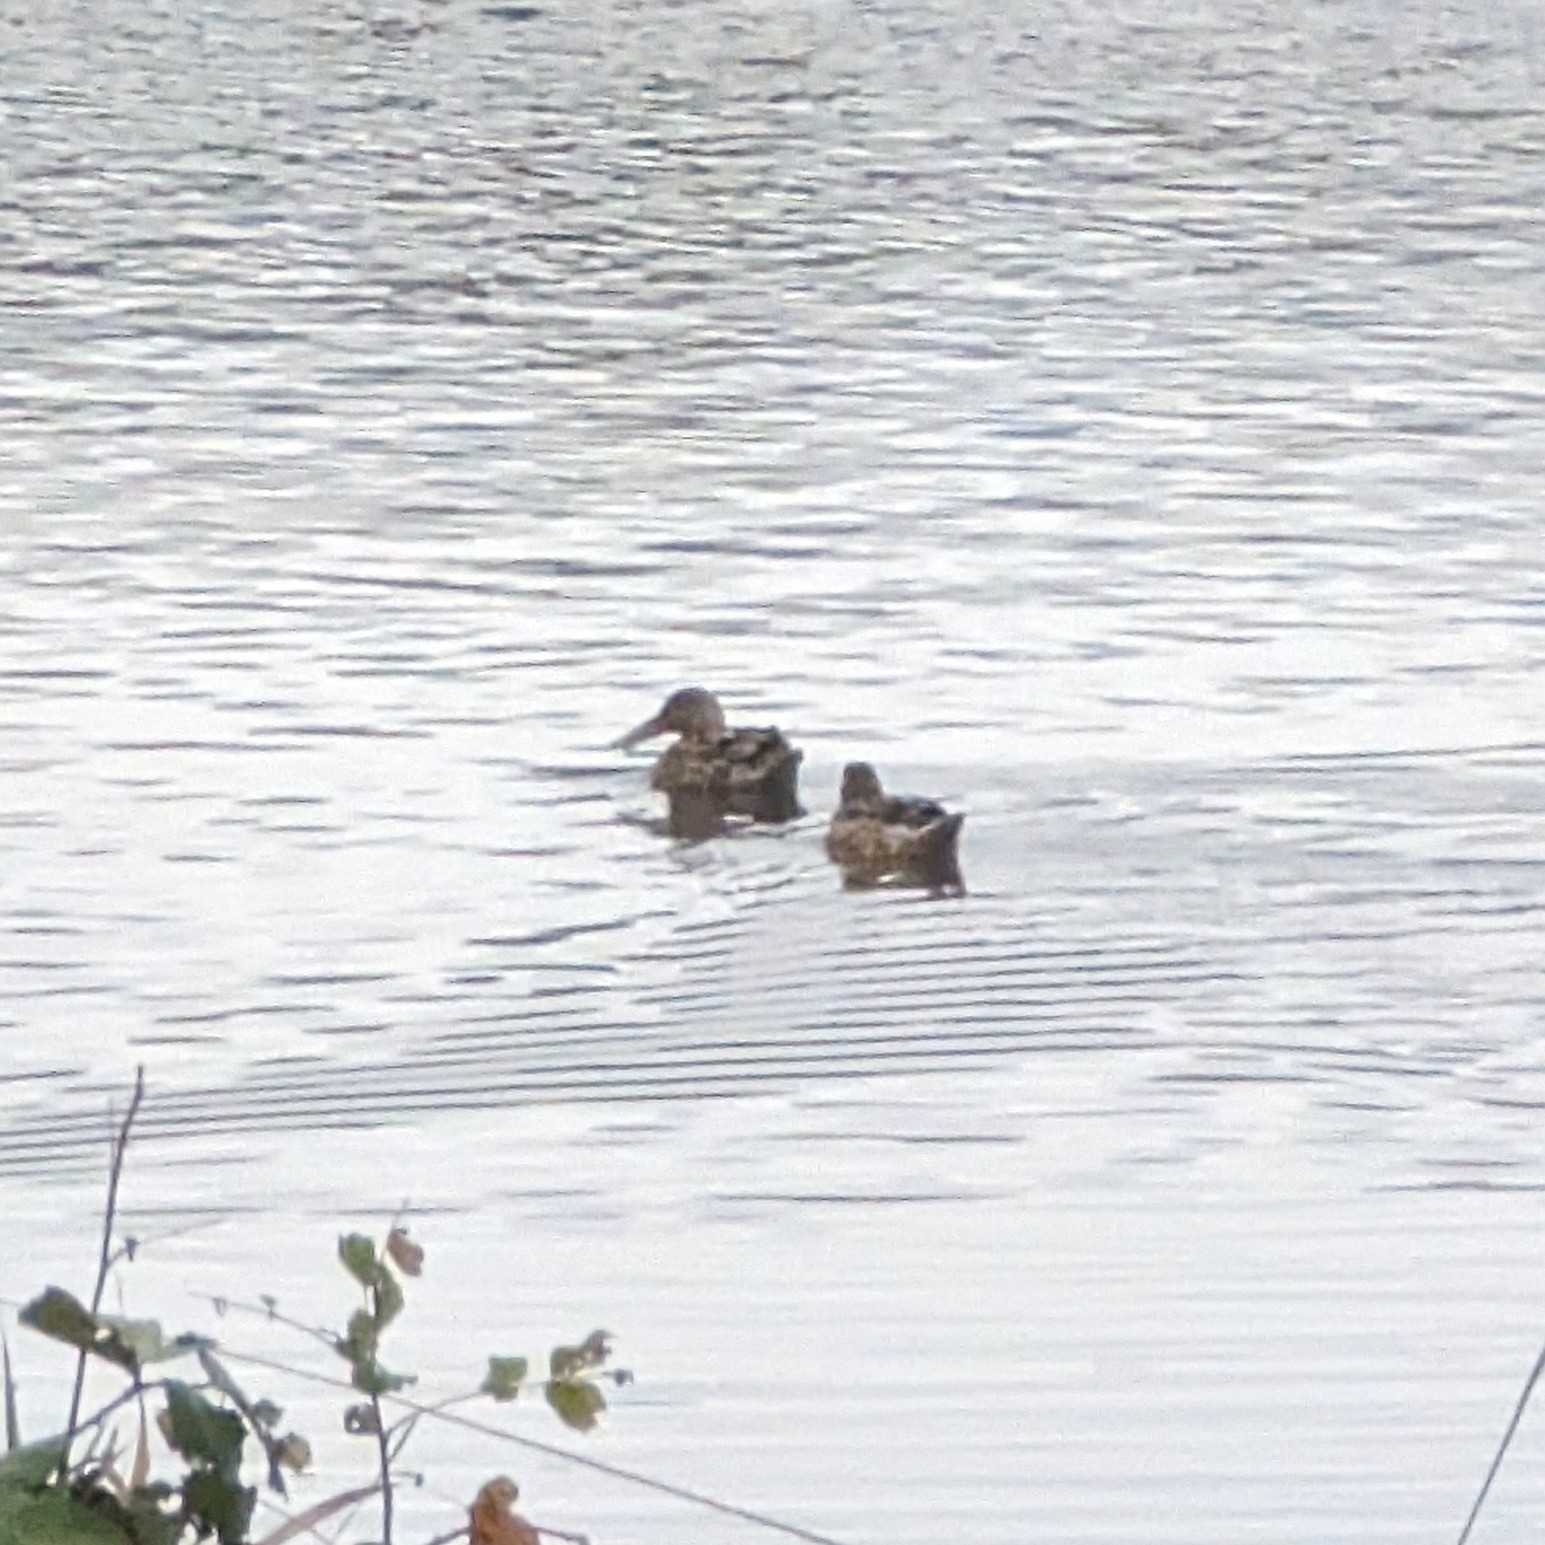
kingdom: Animalia
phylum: Chordata
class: Aves
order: Anseriformes
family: Anatidae
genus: Spatula
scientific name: Spatula clypeata
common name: Northern shoveler
